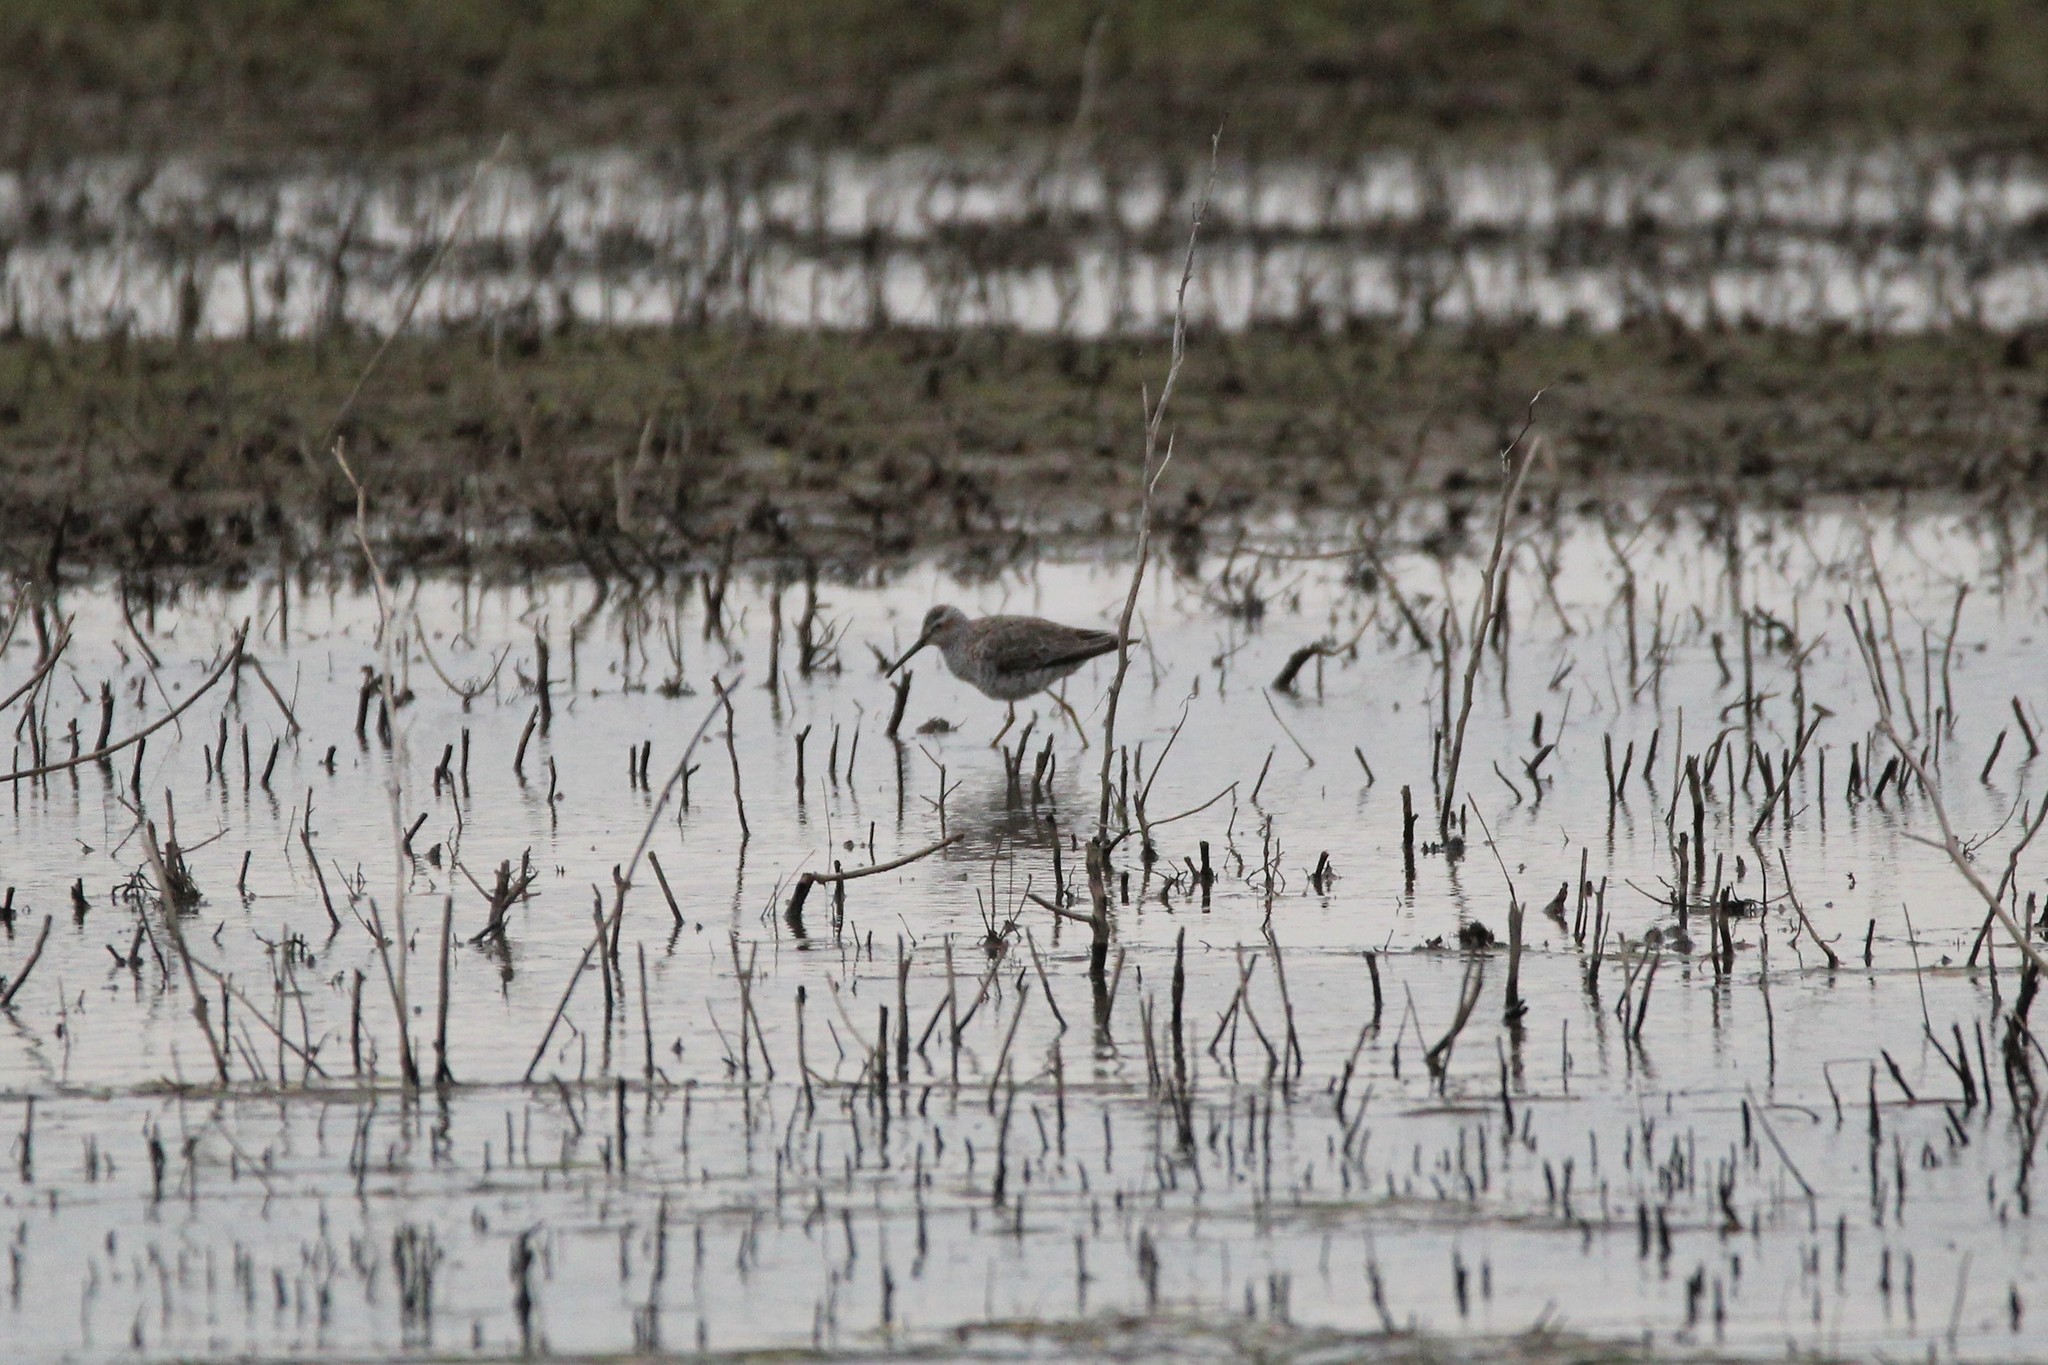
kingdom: Animalia
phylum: Chordata
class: Aves
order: Charadriiformes
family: Scolopacidae
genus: Calidris
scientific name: Calidris himantopus
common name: Stilt sandpiper
